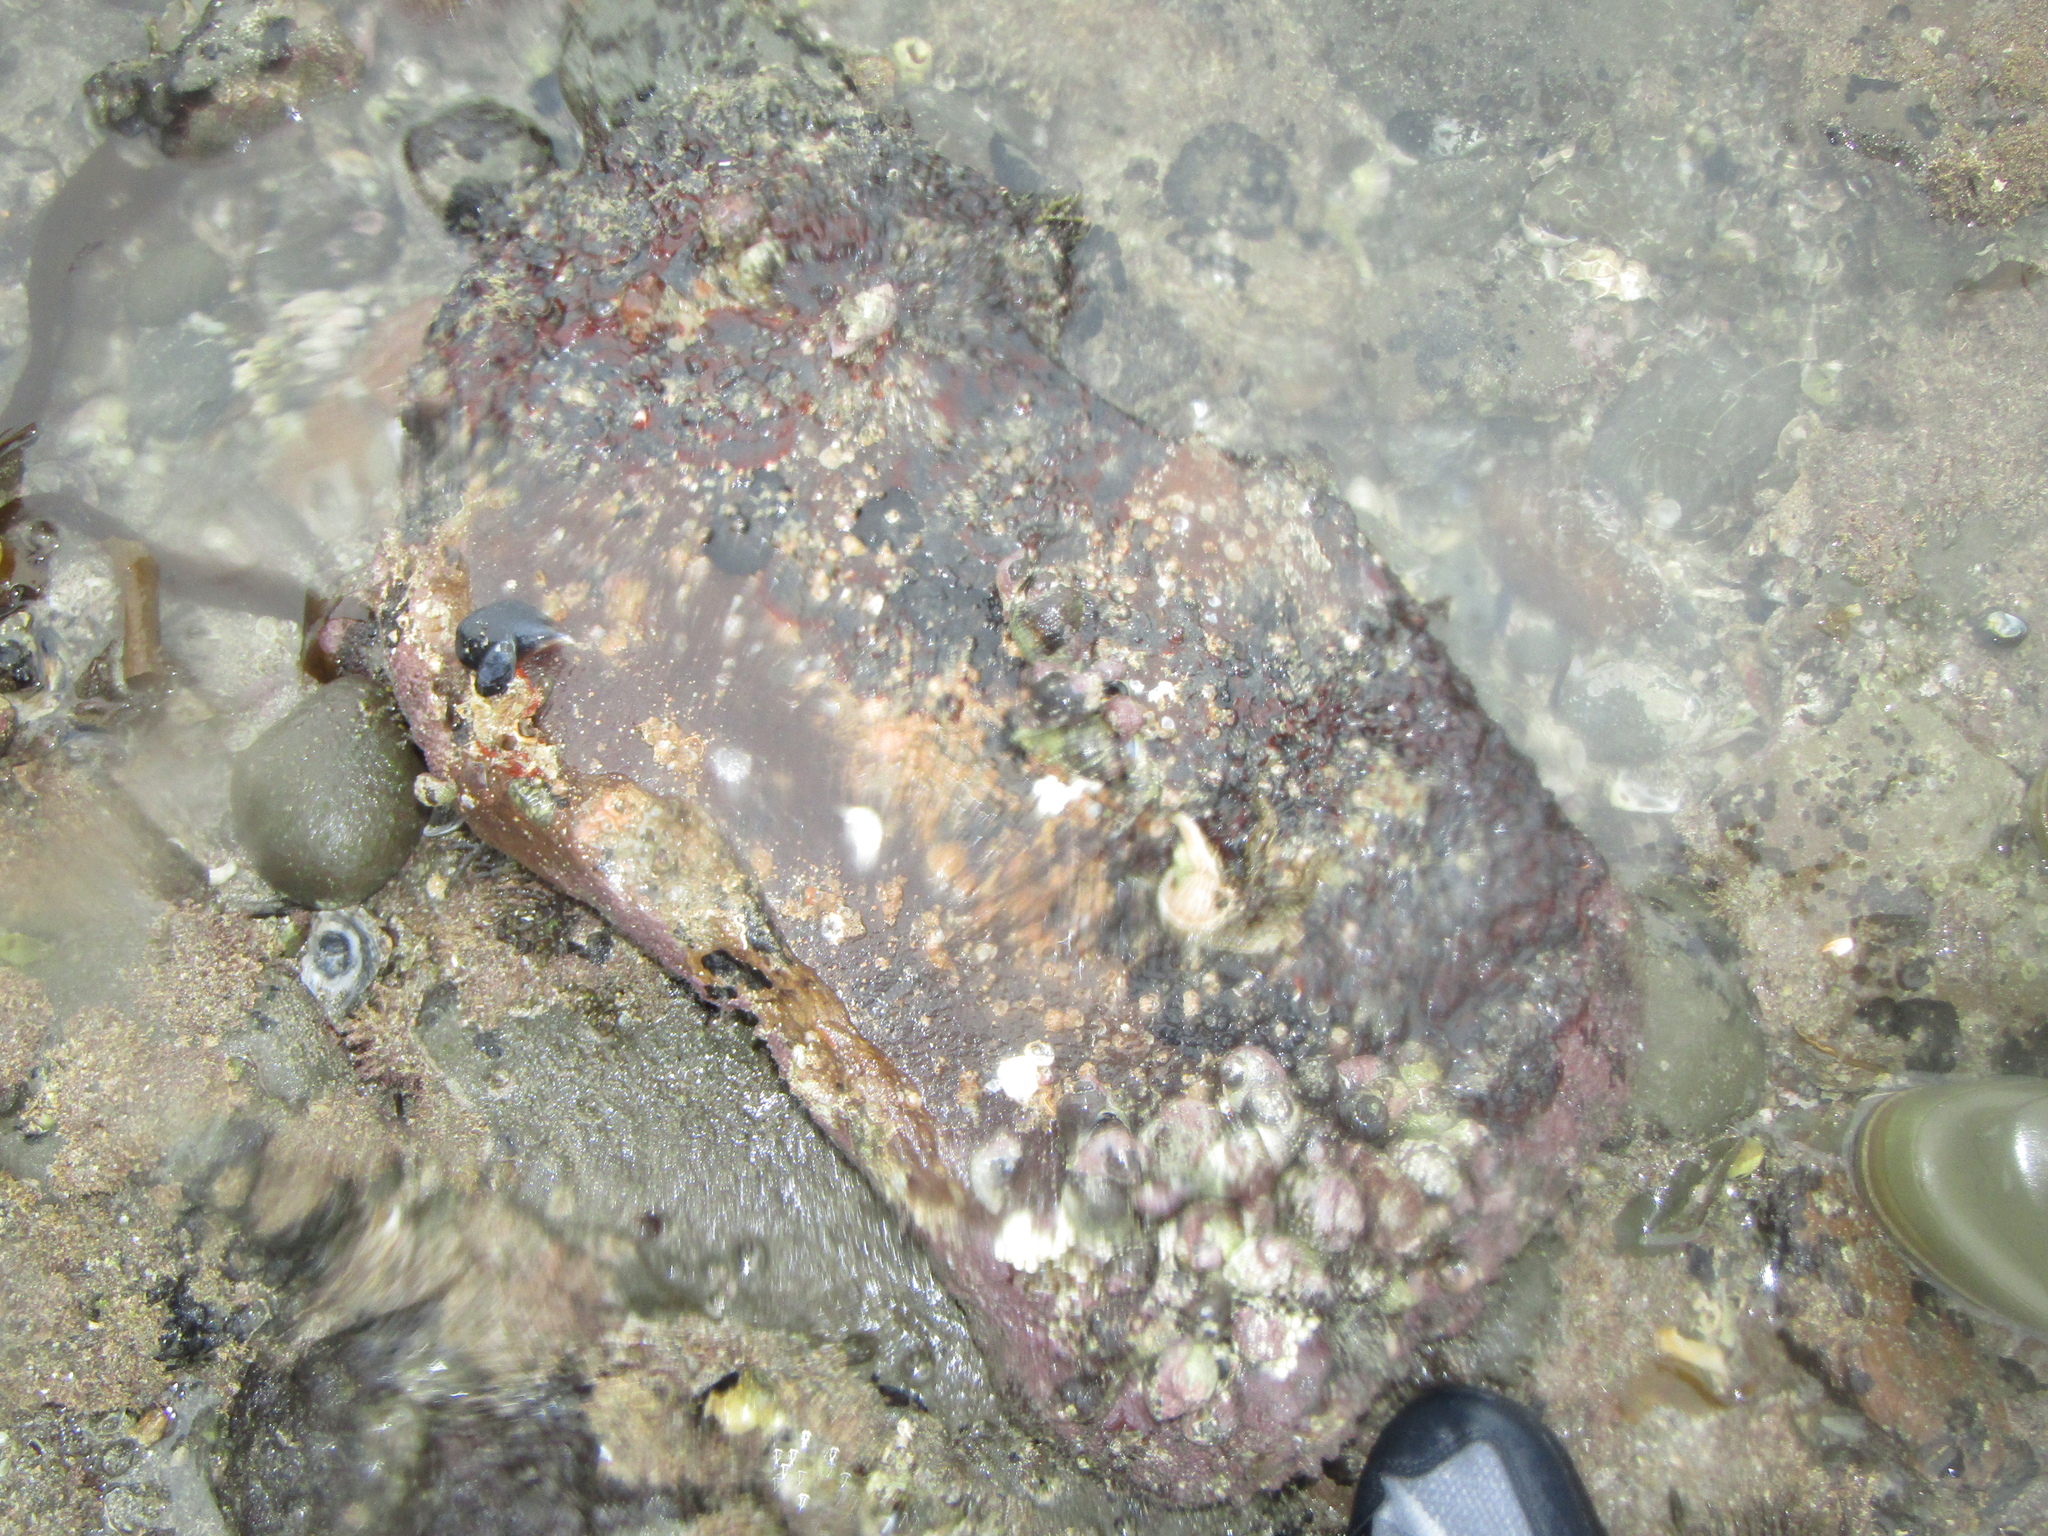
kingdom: Animalia
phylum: Mollusca
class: Gastropoda
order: Neogastropoda
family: Muricidae
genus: Haustrum
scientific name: Haustrum haustorium
